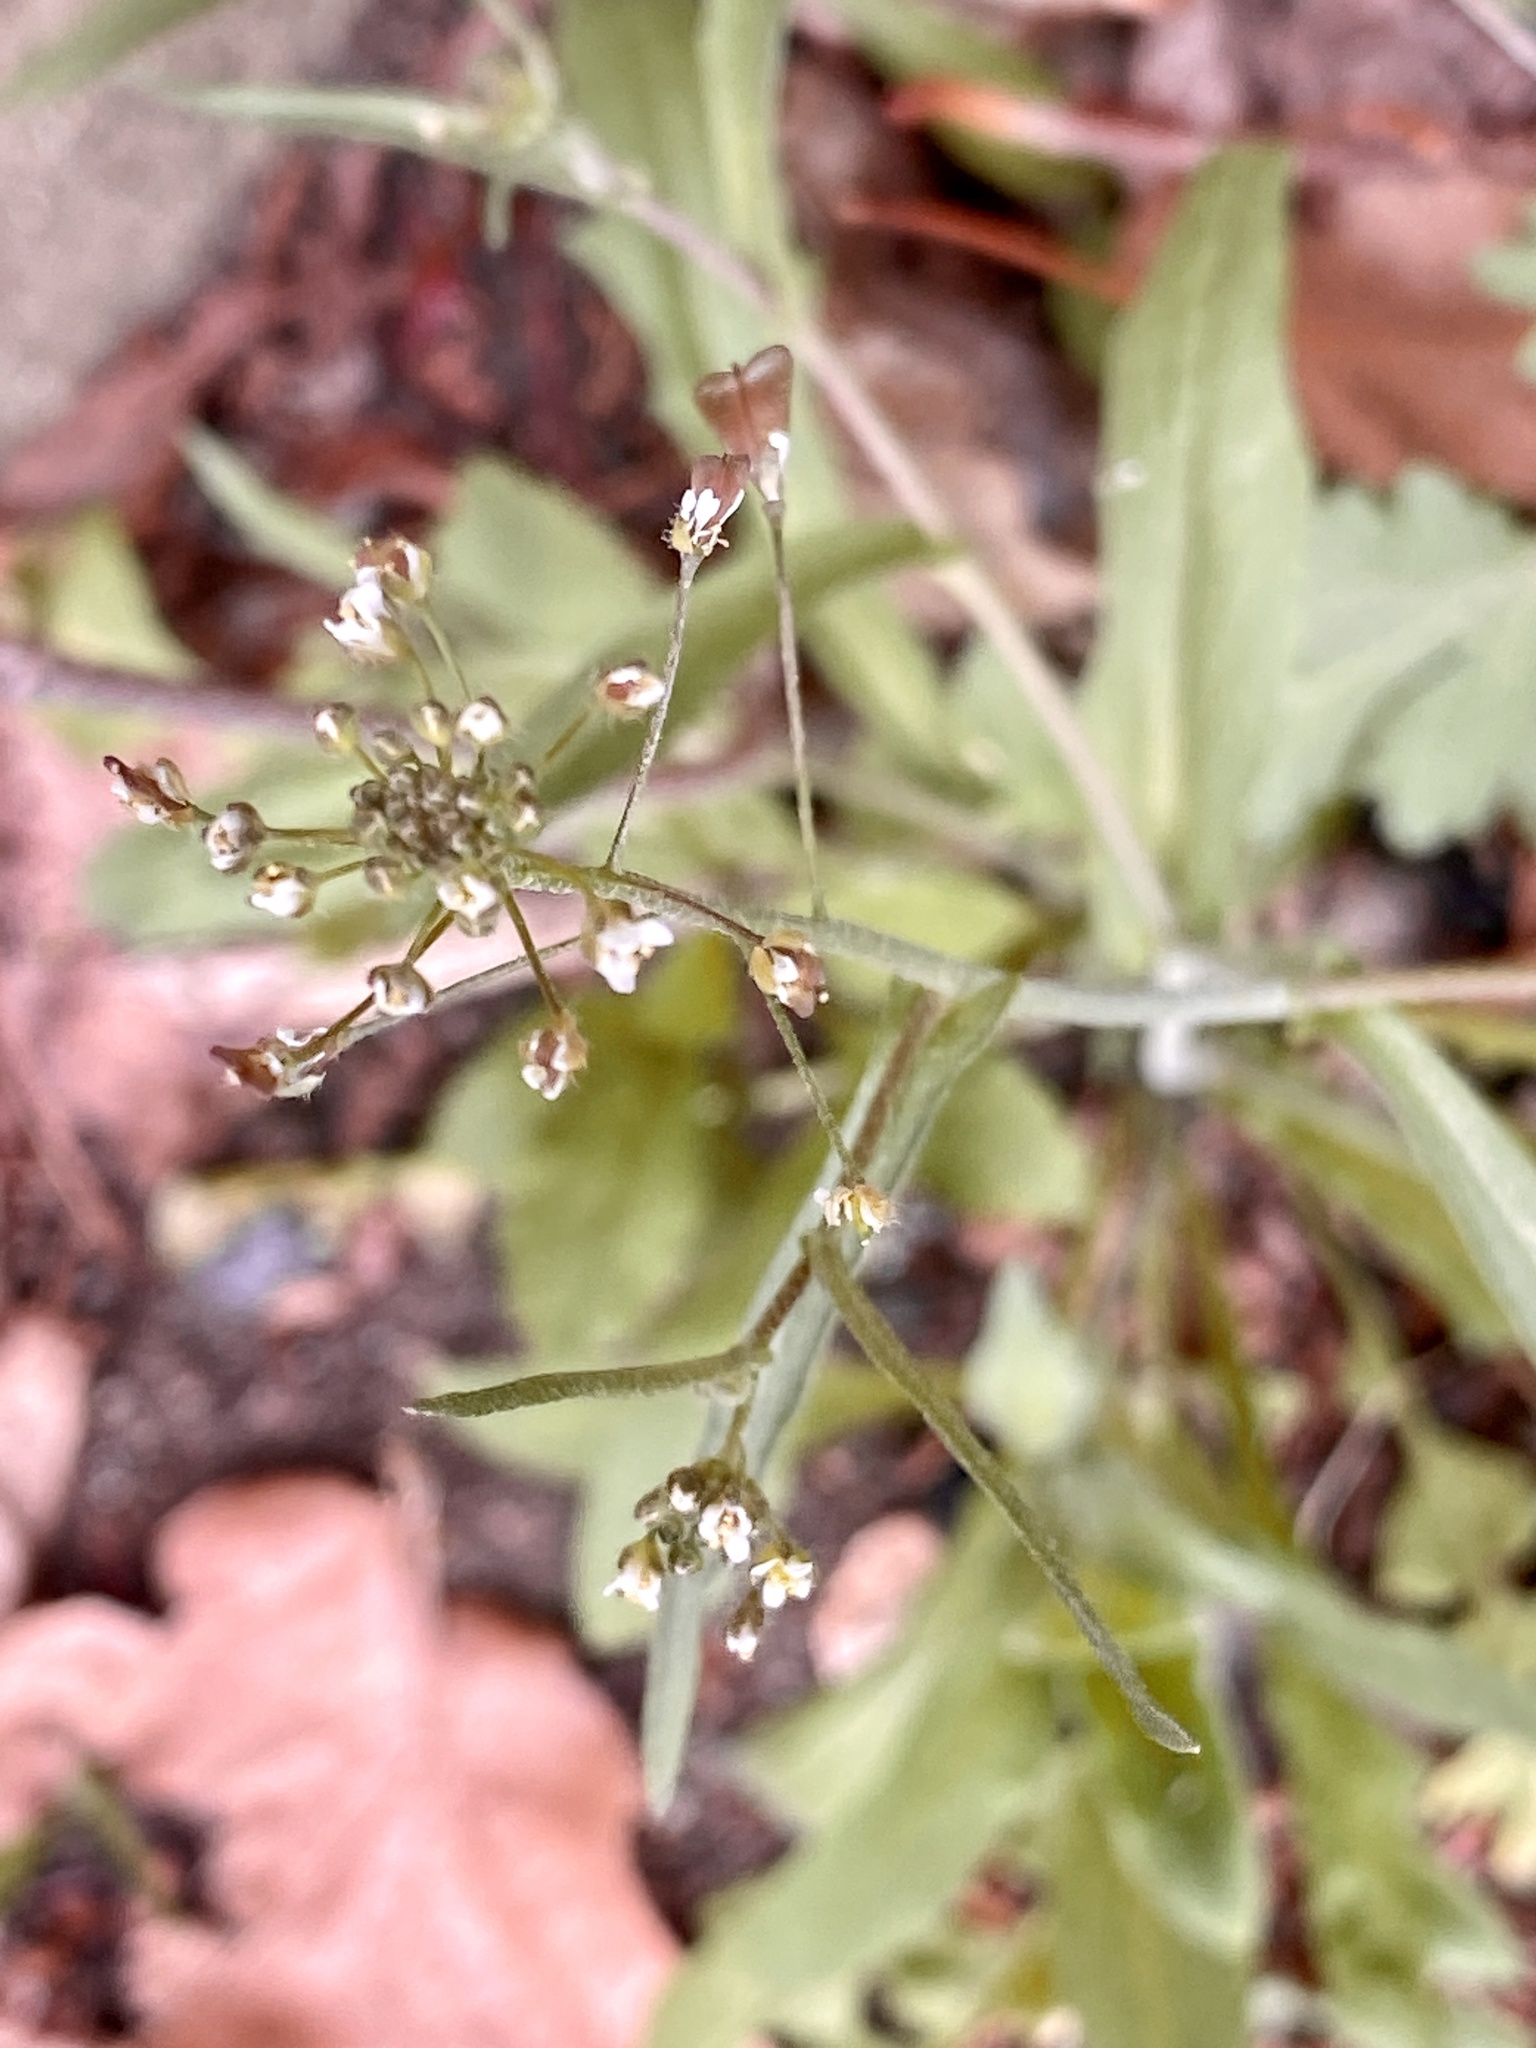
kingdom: Plantae
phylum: Tracheophyta
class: Magnoliopsida
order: Brassicales
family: Brassicaceae
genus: Capsella
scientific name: Capsella bursa-pastoris
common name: Shepherd's purse
